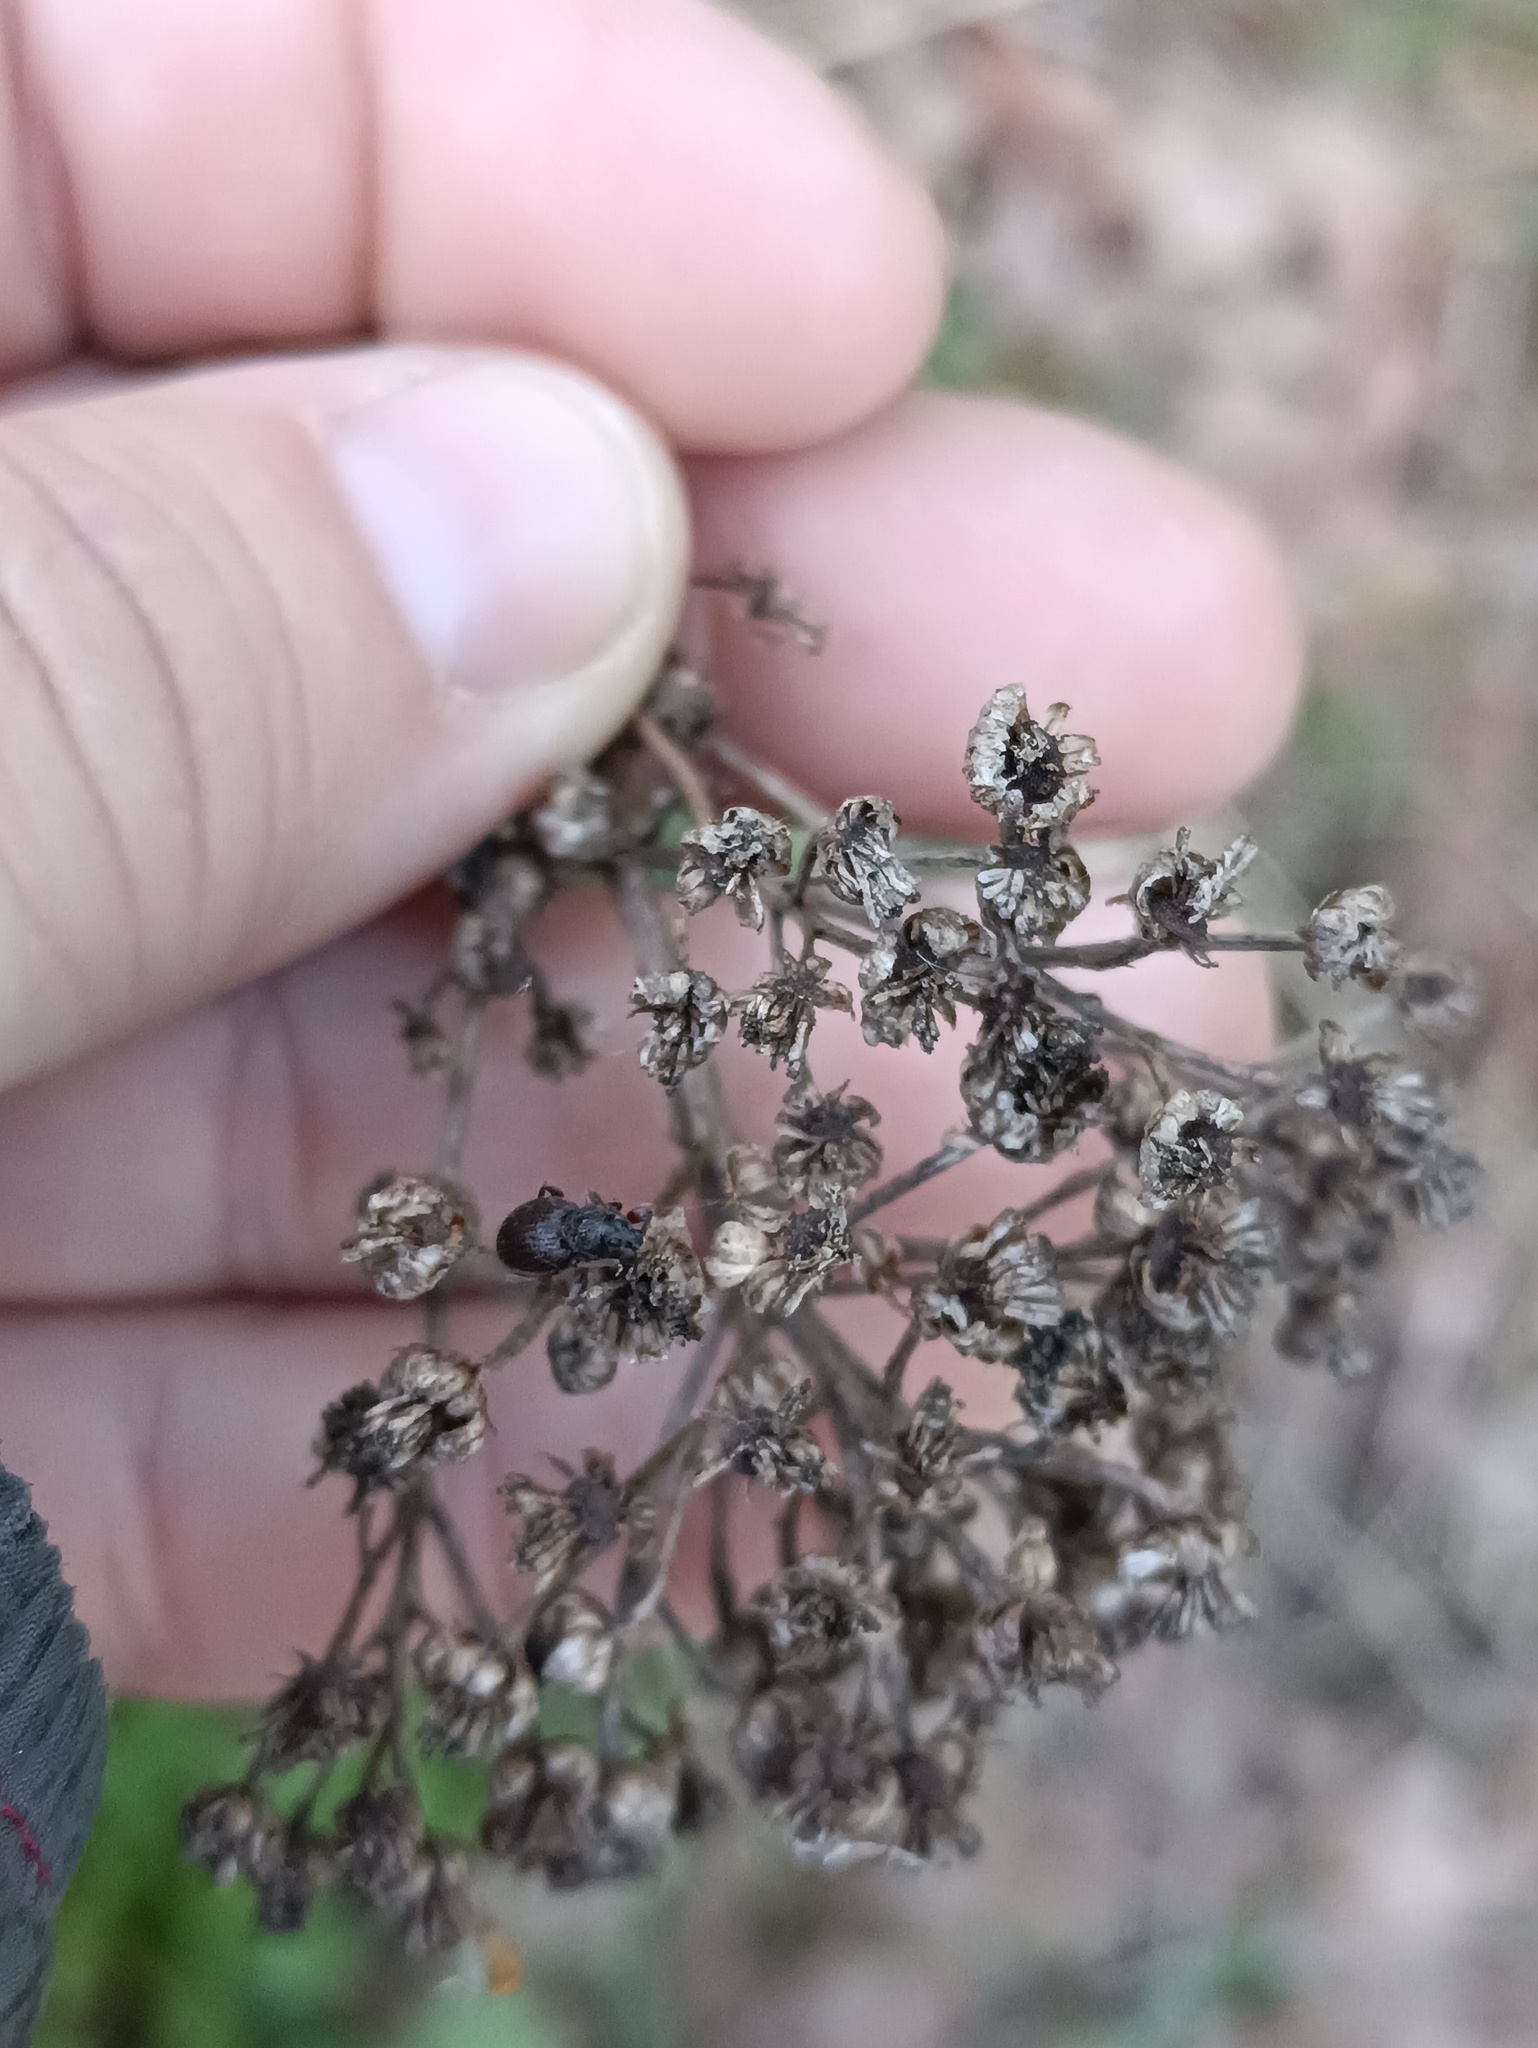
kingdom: Animalia
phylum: Arthropoda
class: Insecta
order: Coleoptera
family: Curculionidae
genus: Otiorhynchus
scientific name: Otiorhynchus ovatus
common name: Strawberry root weevil
